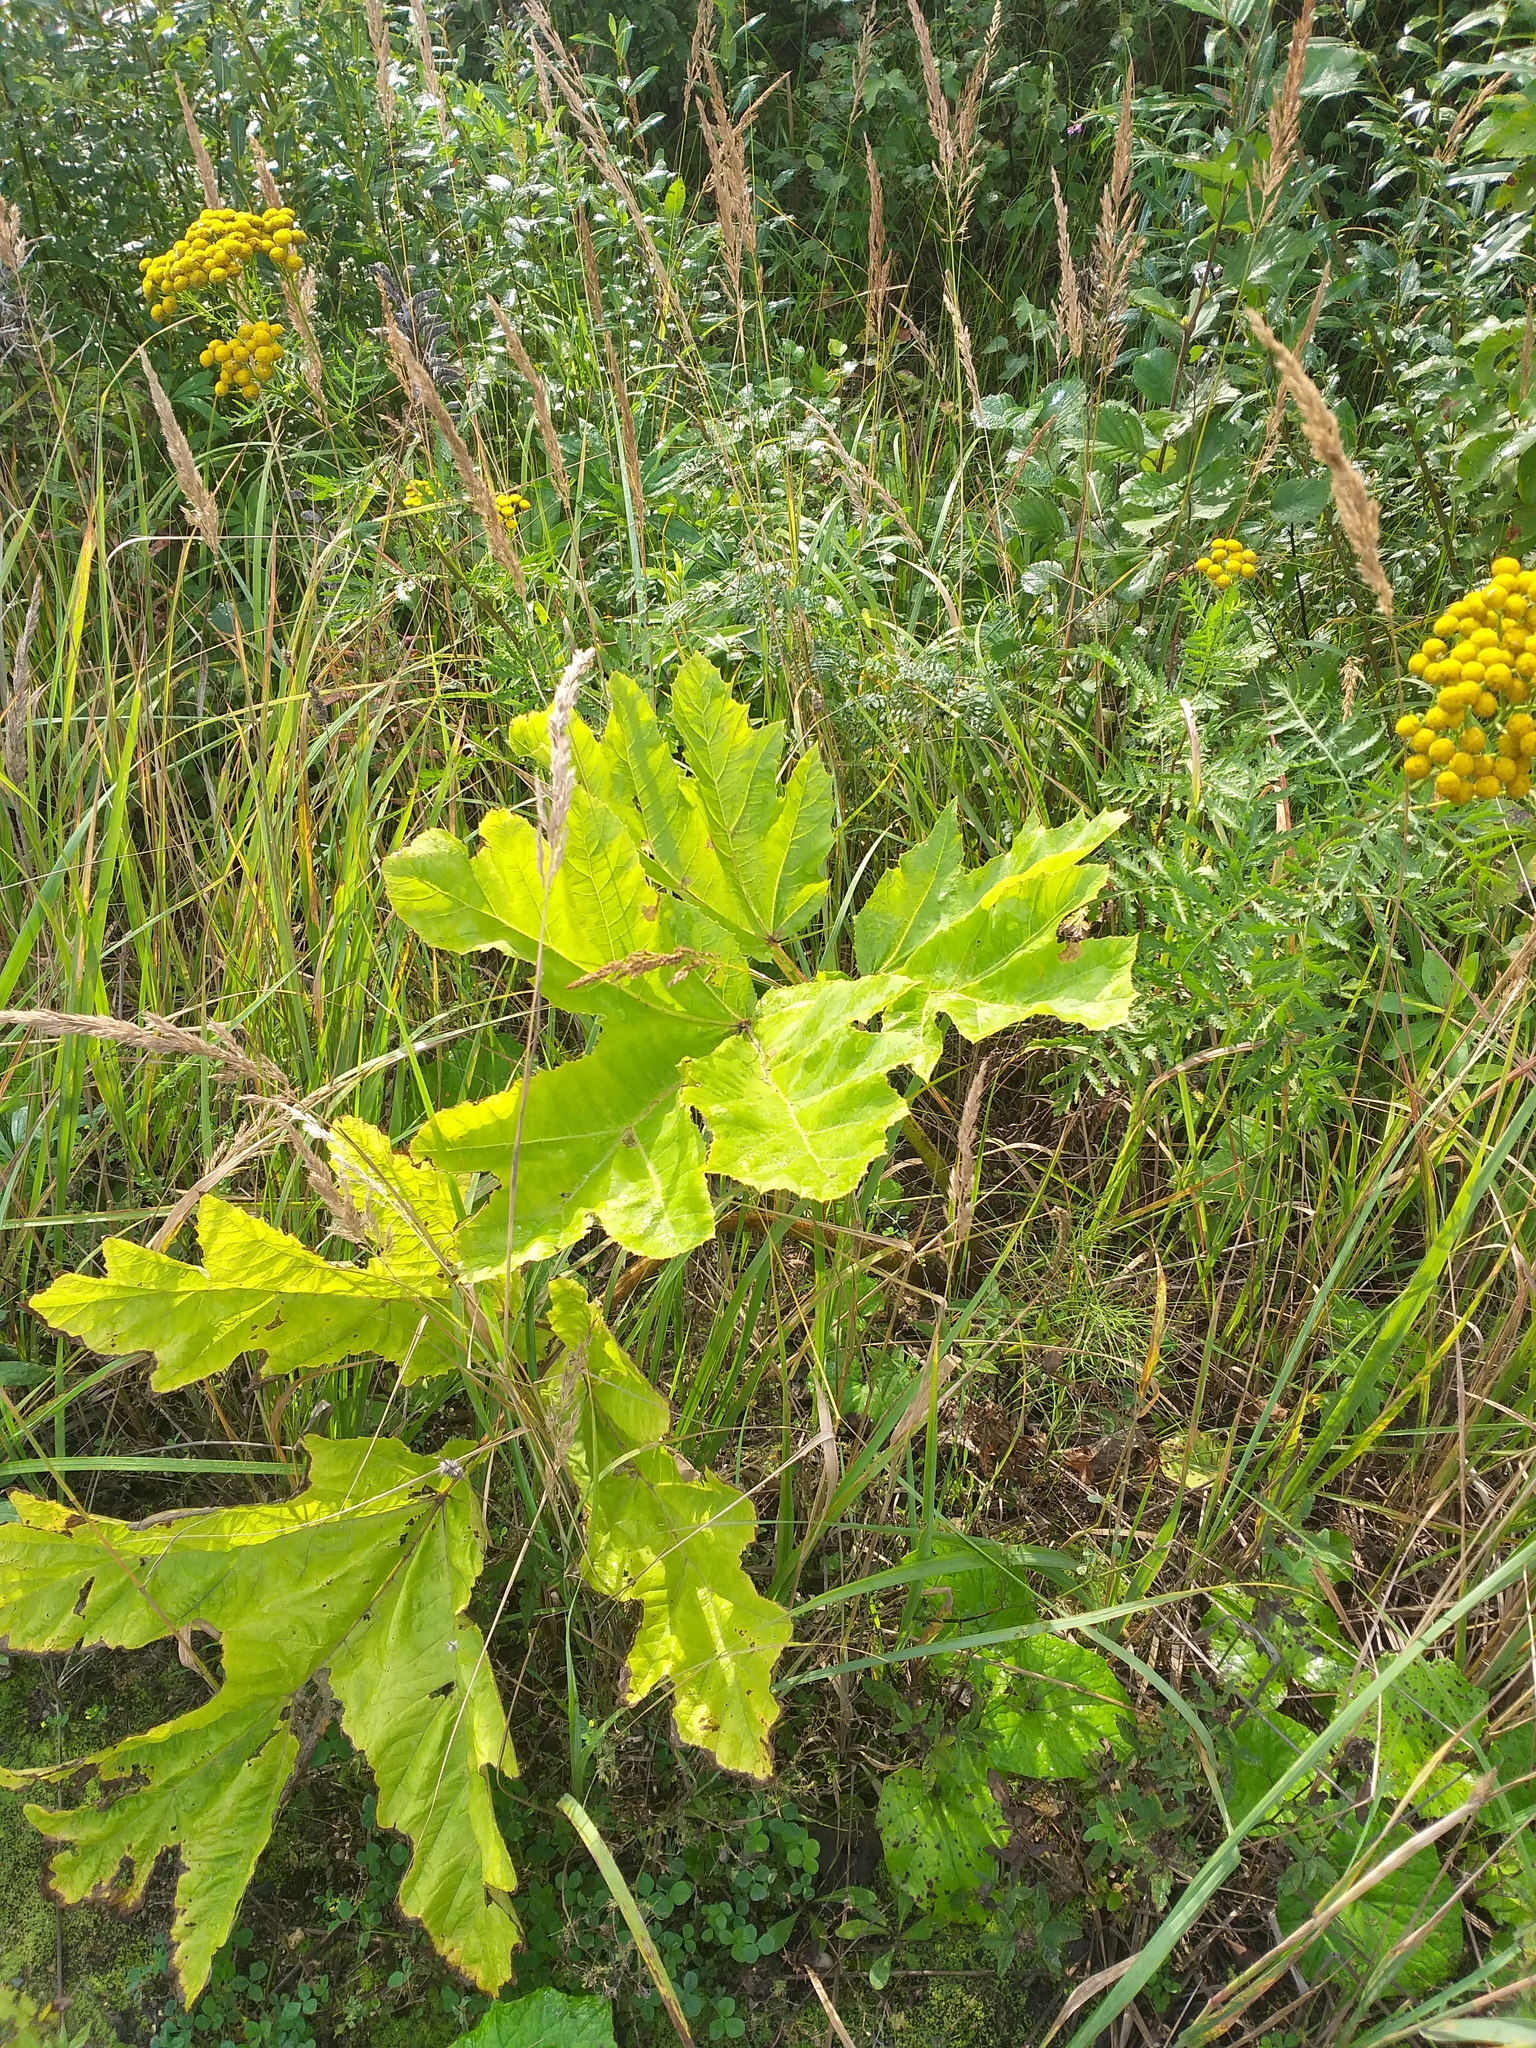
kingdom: Plantae
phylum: Tracheophyta
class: Magnoliopsida
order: Apiales
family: Apiaceae
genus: Heracleum
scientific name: Heracleum sosnowskyi
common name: Sosnowsky's hogweed
